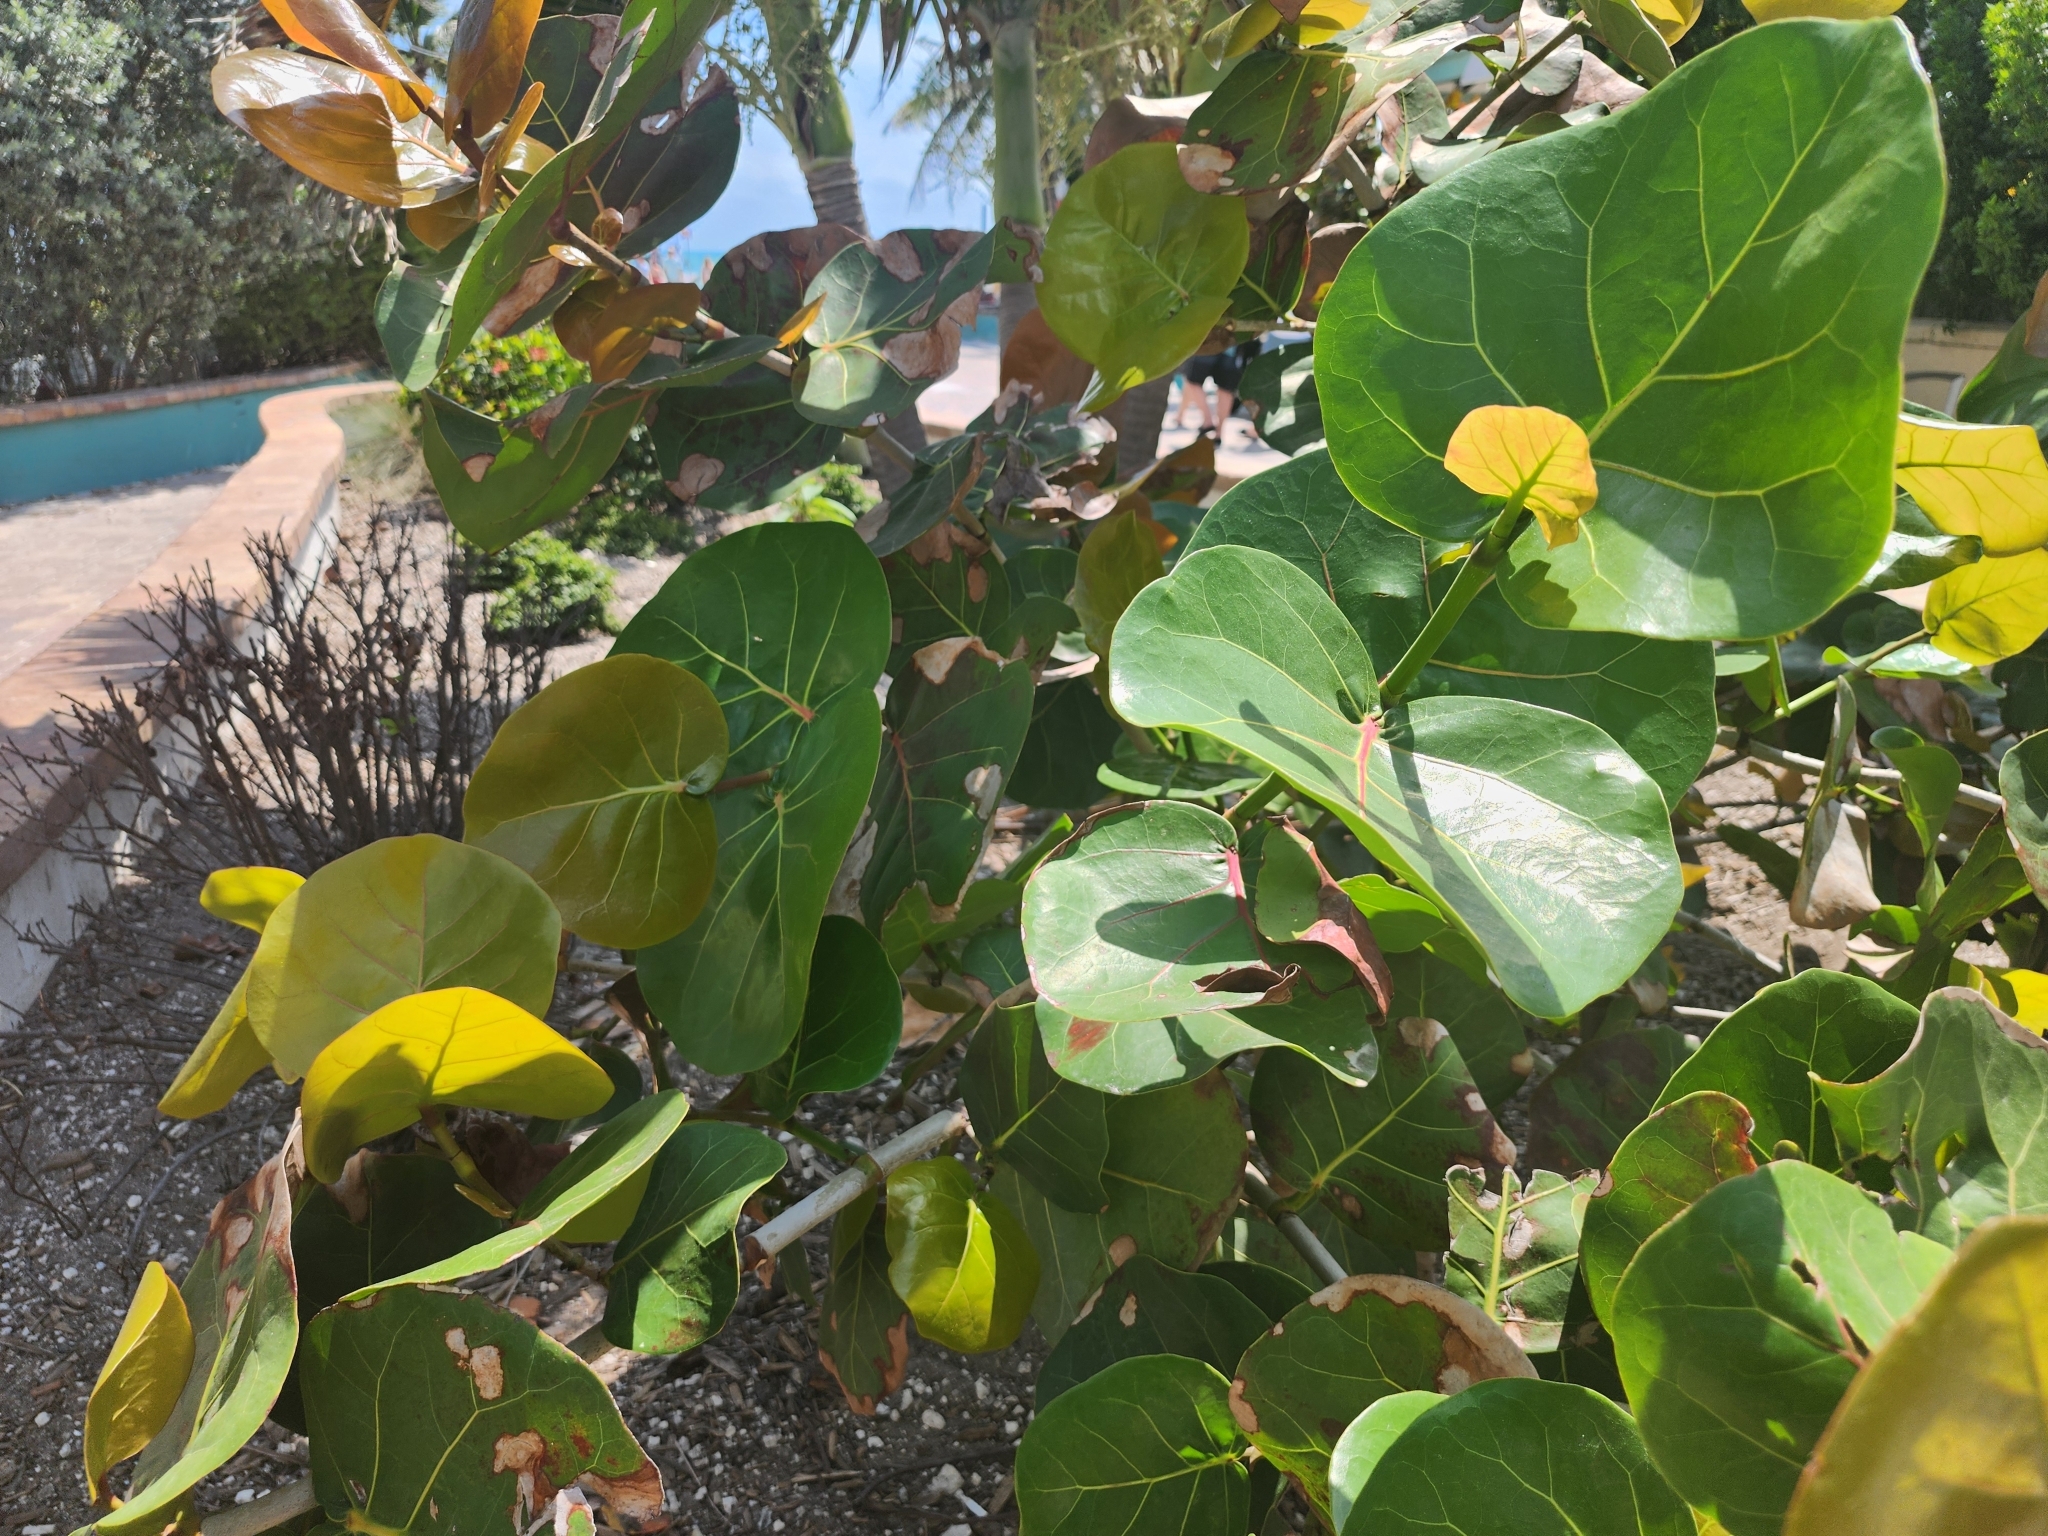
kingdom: Plantae
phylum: Tracheophyta
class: Magnoliopsida
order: Caryophyllales
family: Polygonaceae
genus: Coccoloba
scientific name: Coccoloba uvifera
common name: Seagrape
